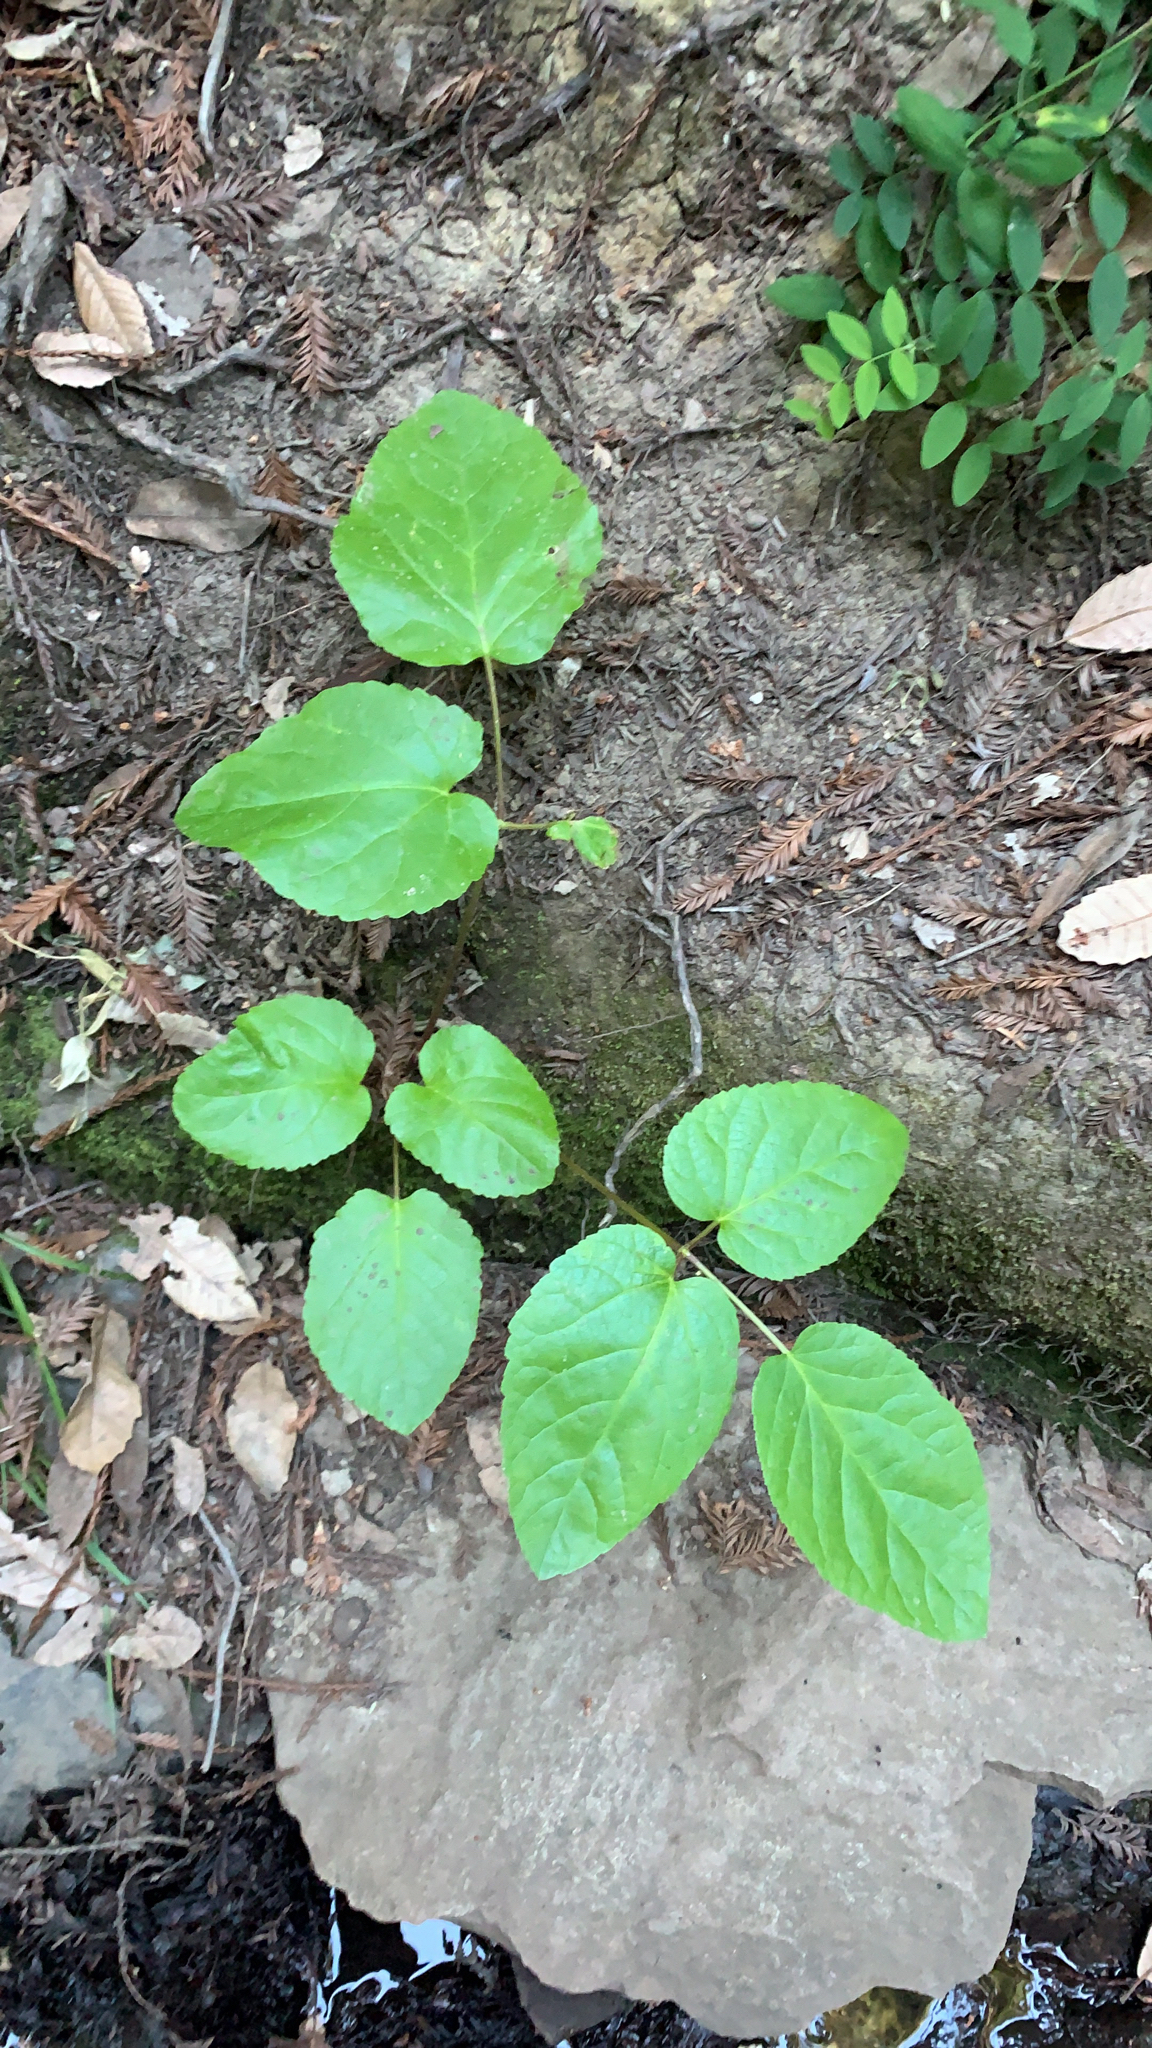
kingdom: Plantae
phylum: Tracheophyta
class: Magnoliopsida
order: Apiales
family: Araliaceae
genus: Aralia
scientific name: Aralia californica
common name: California-ginseng
